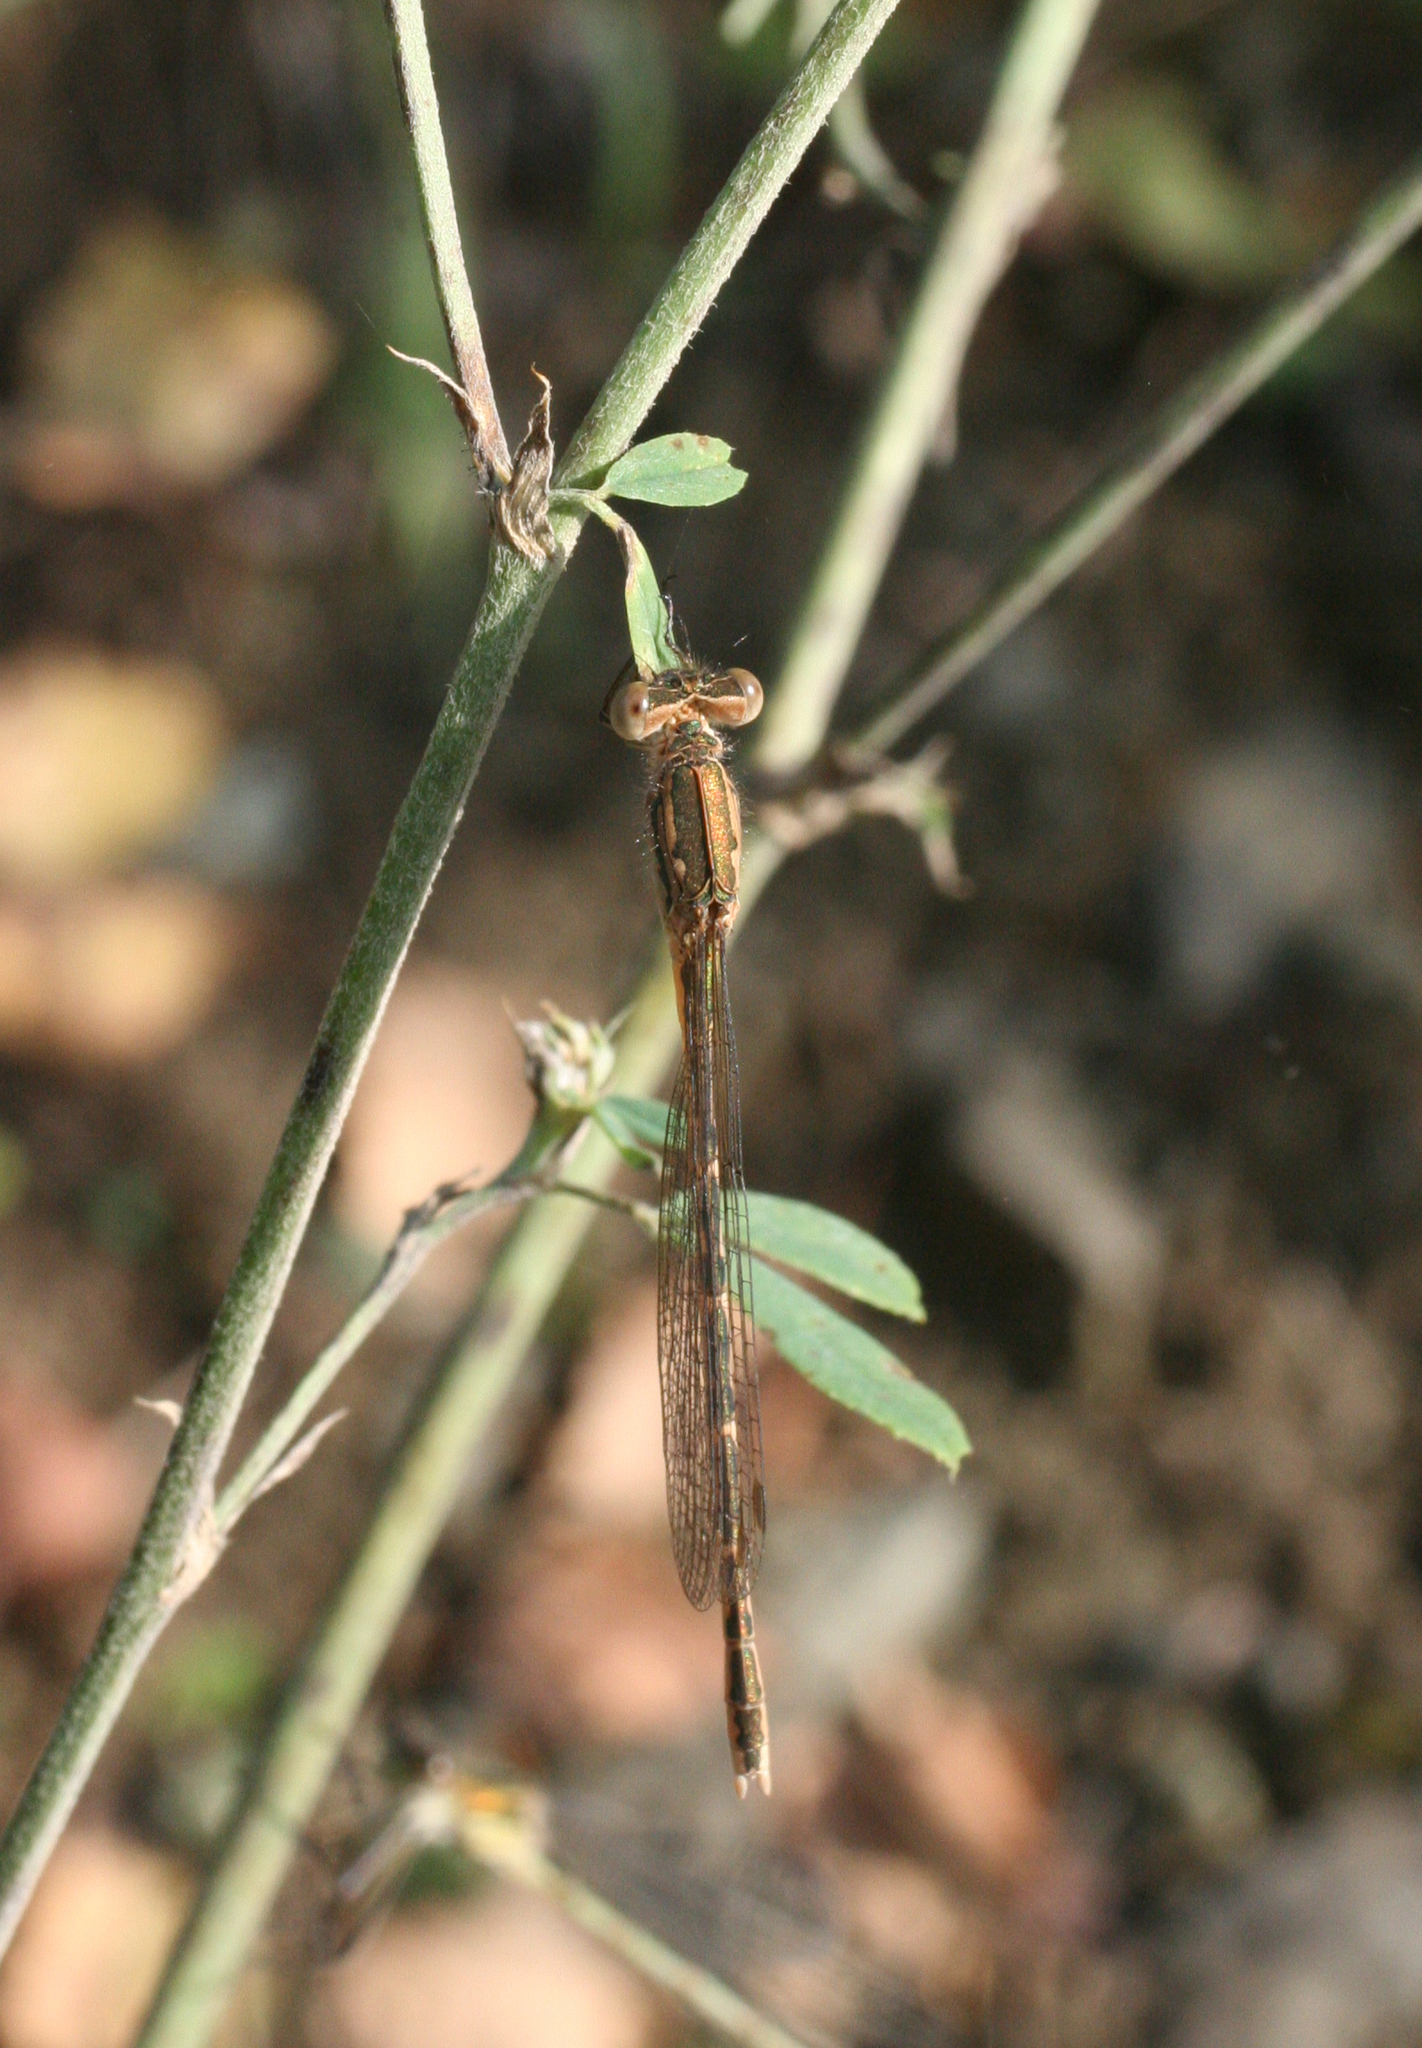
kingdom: Animalia
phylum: Arthropoda
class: Insecta
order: Odonata
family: Lestidae
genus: Sympecma
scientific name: Sympecma paedisca
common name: Siberian winter damsel
